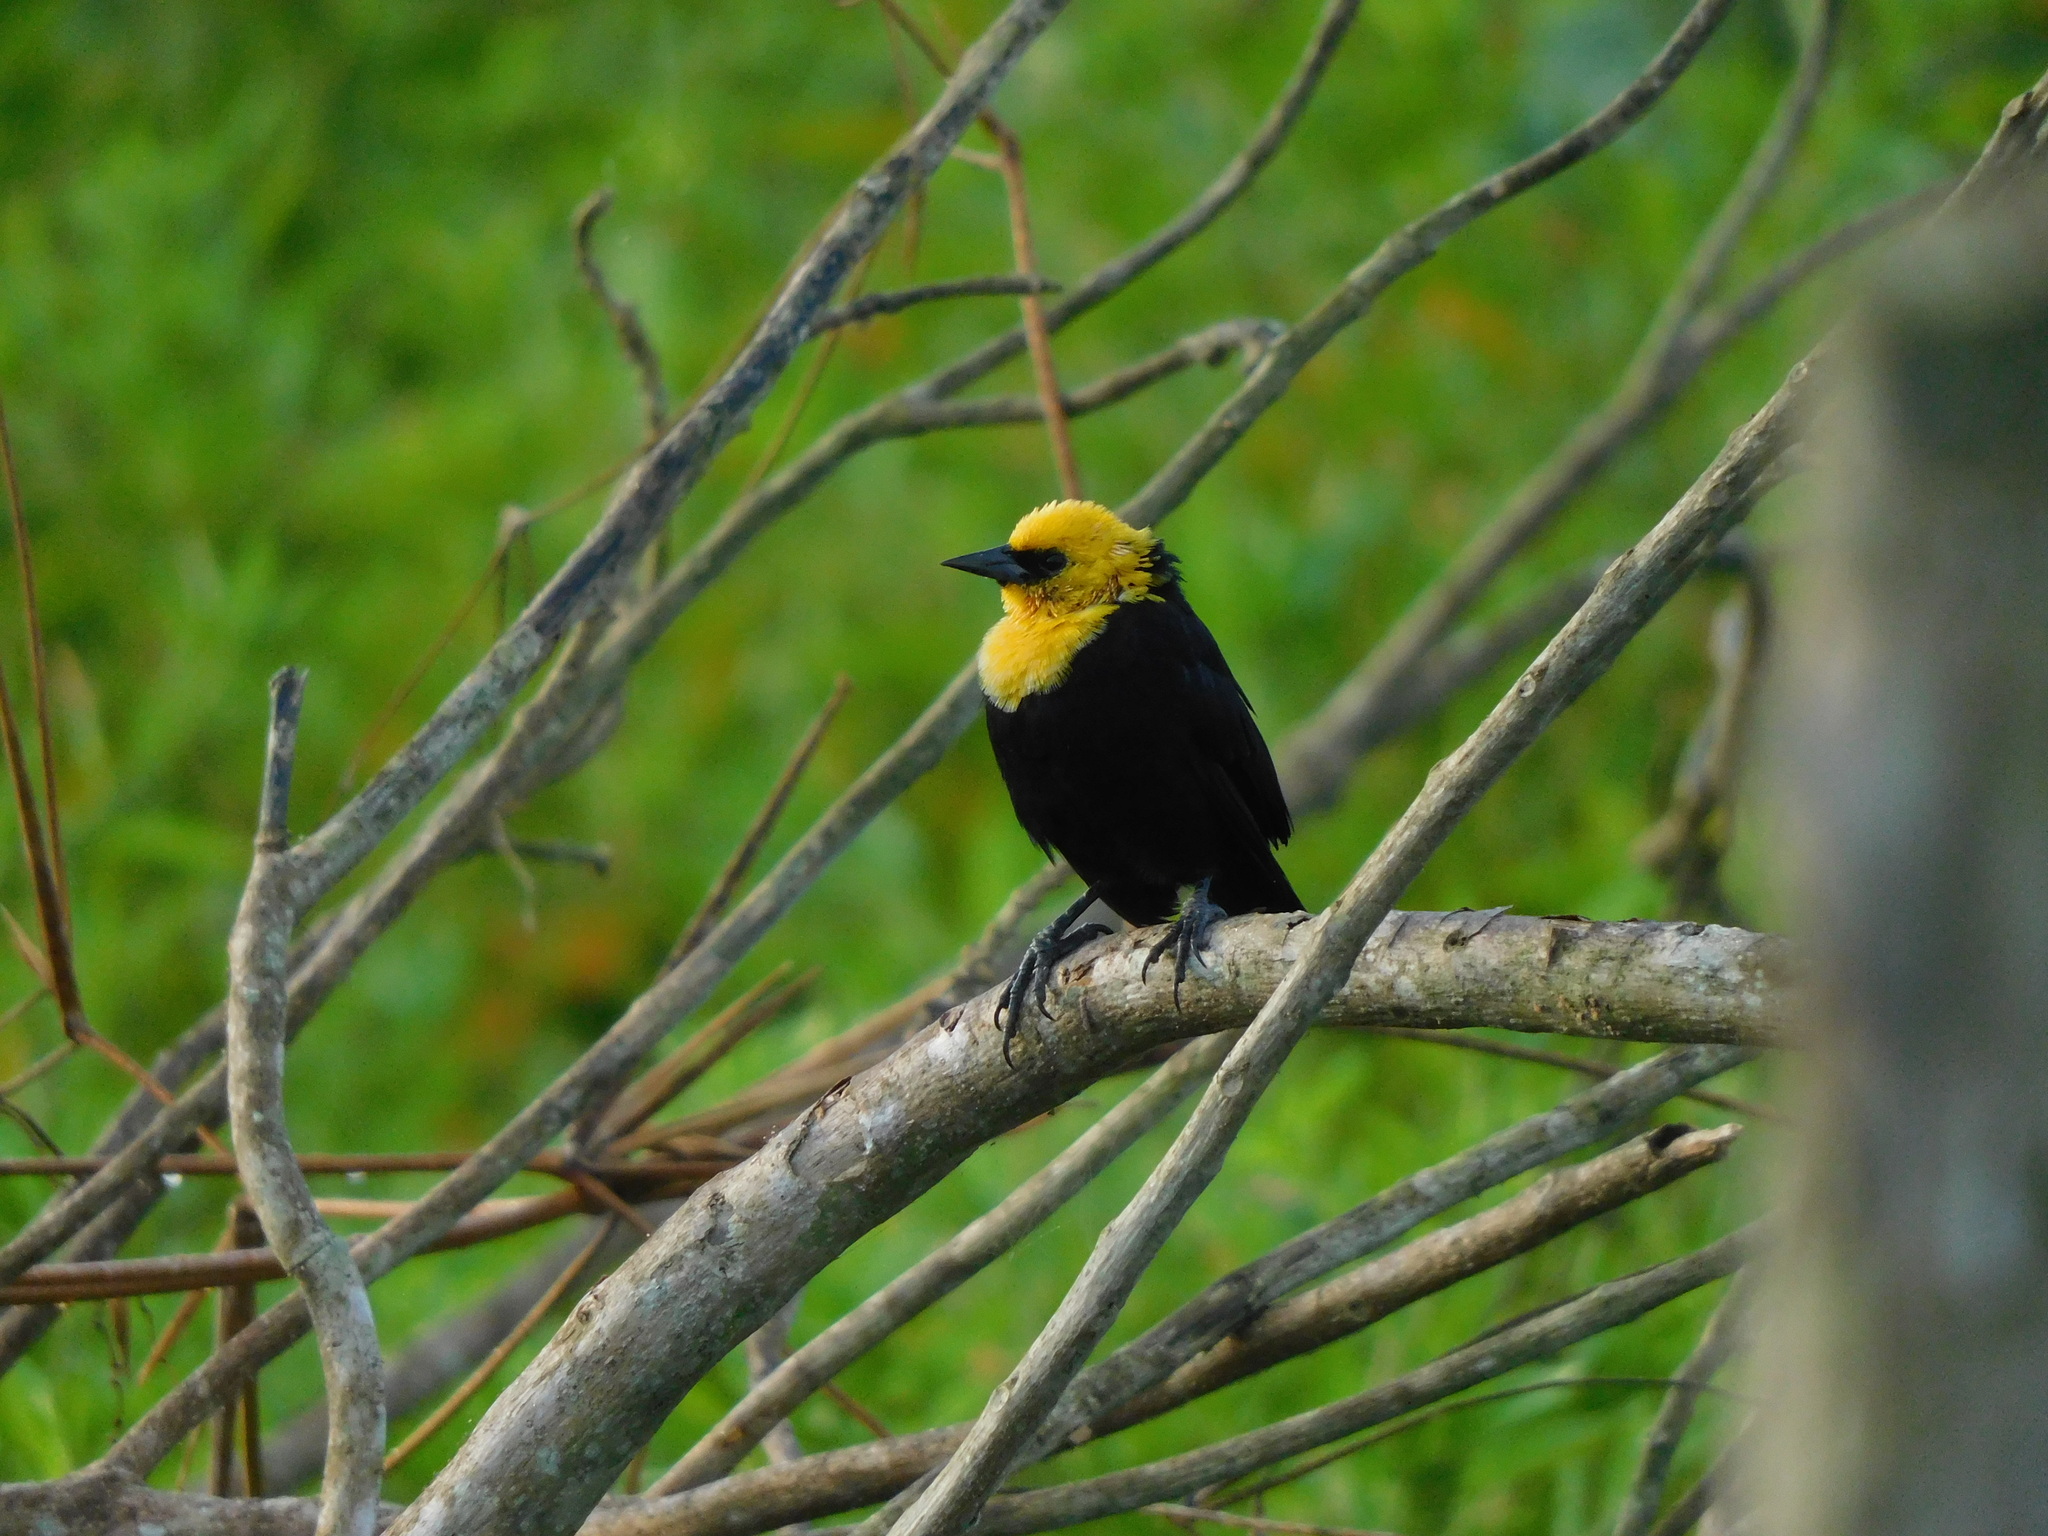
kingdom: Animalia
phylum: Chordata
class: Aves
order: Passeriformes
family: Icteridae
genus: Chrysomus
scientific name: Chrysomus icterocephalus
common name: Yellow-hooded blackbird
